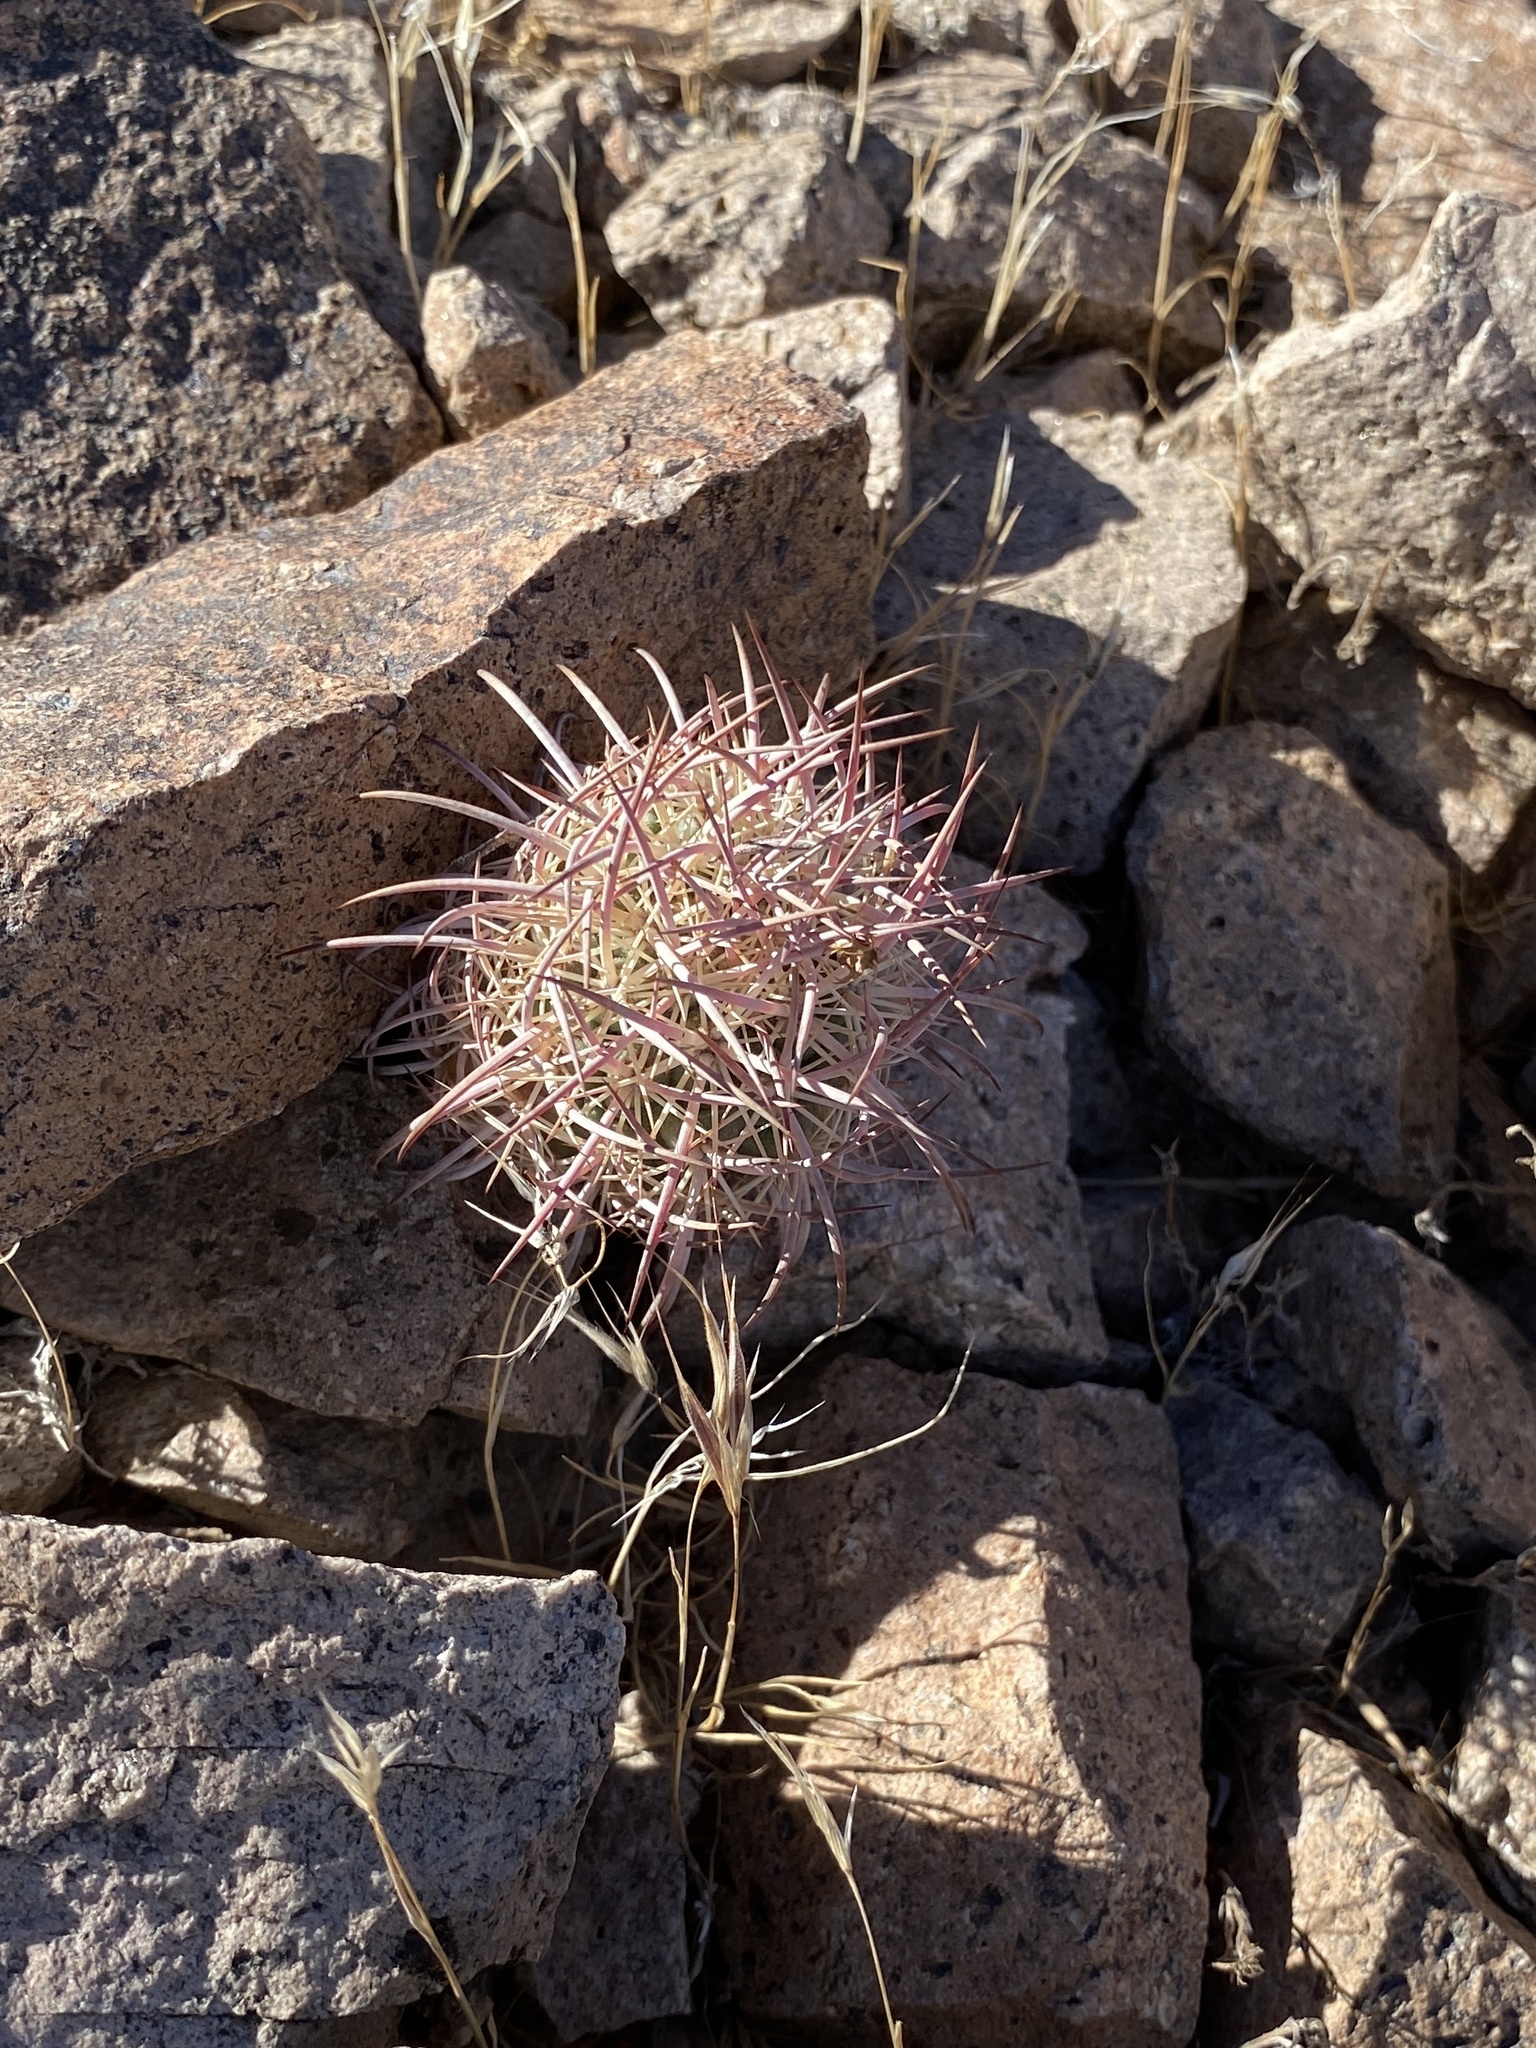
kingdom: Plantae
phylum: Tracheophyta
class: Magnoliopsida
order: Caryophyllales
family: Cactaceae
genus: Sclerocactus
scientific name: Sclerocactus johnsonii
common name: Eight-spine fishhook cactus
